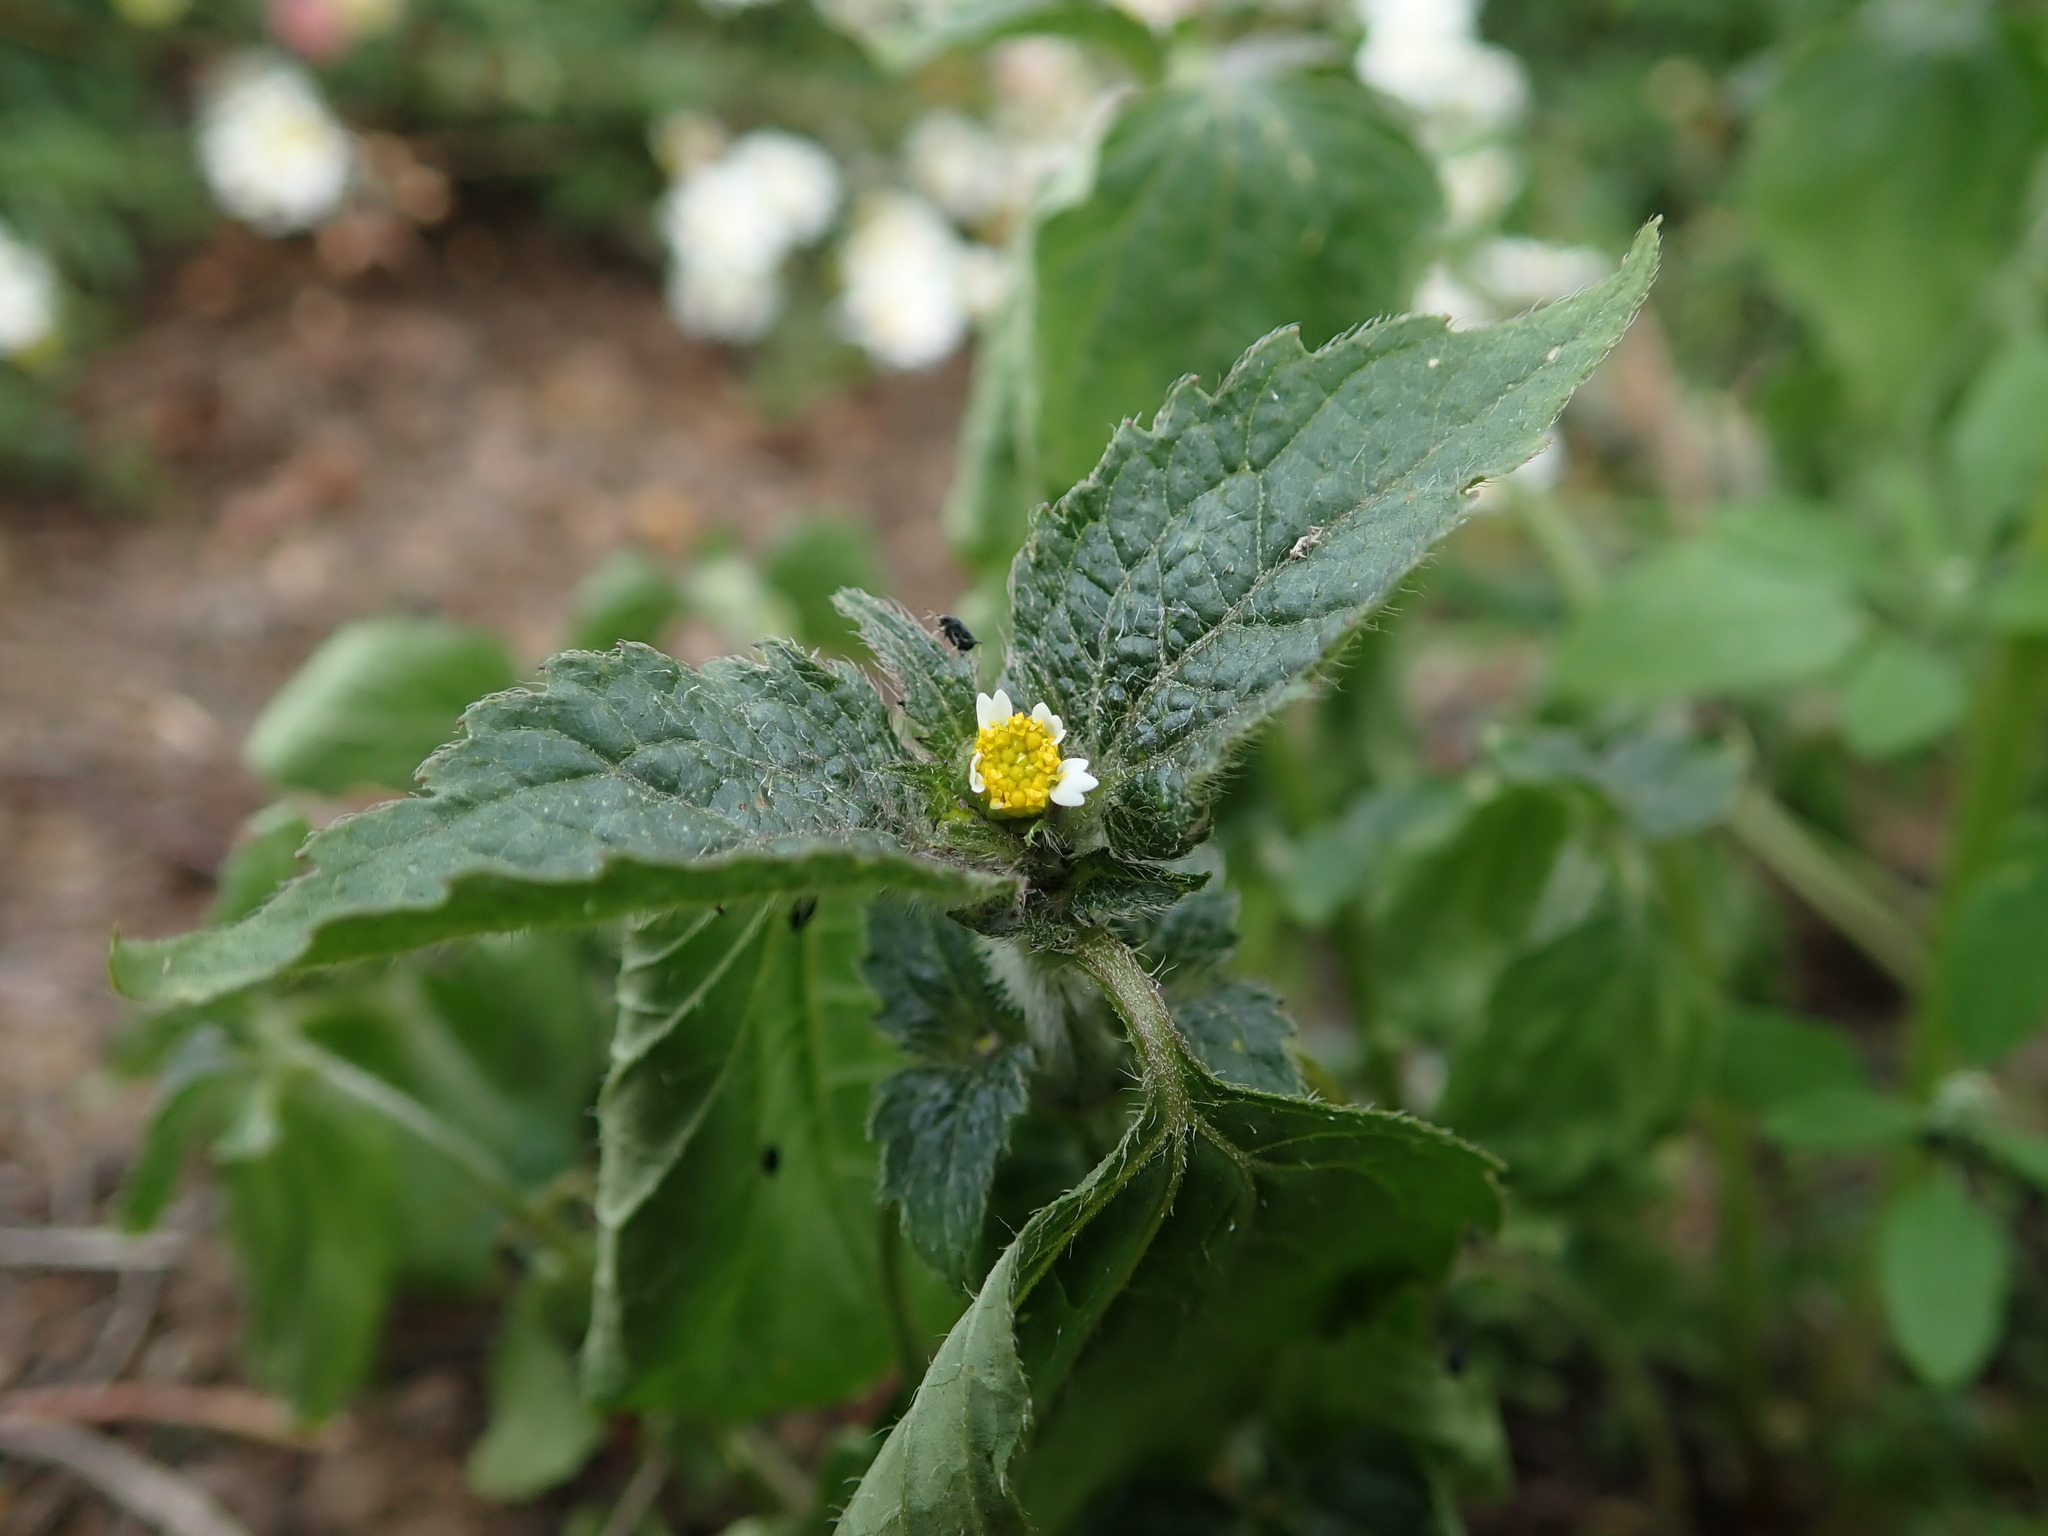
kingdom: Plantae
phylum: Tracheophyta
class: Magnoliopsida
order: Asterales
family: Asteraceae
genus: Galinsoga
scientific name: Galinsoga quadriradiata
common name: Shaggy soldier
